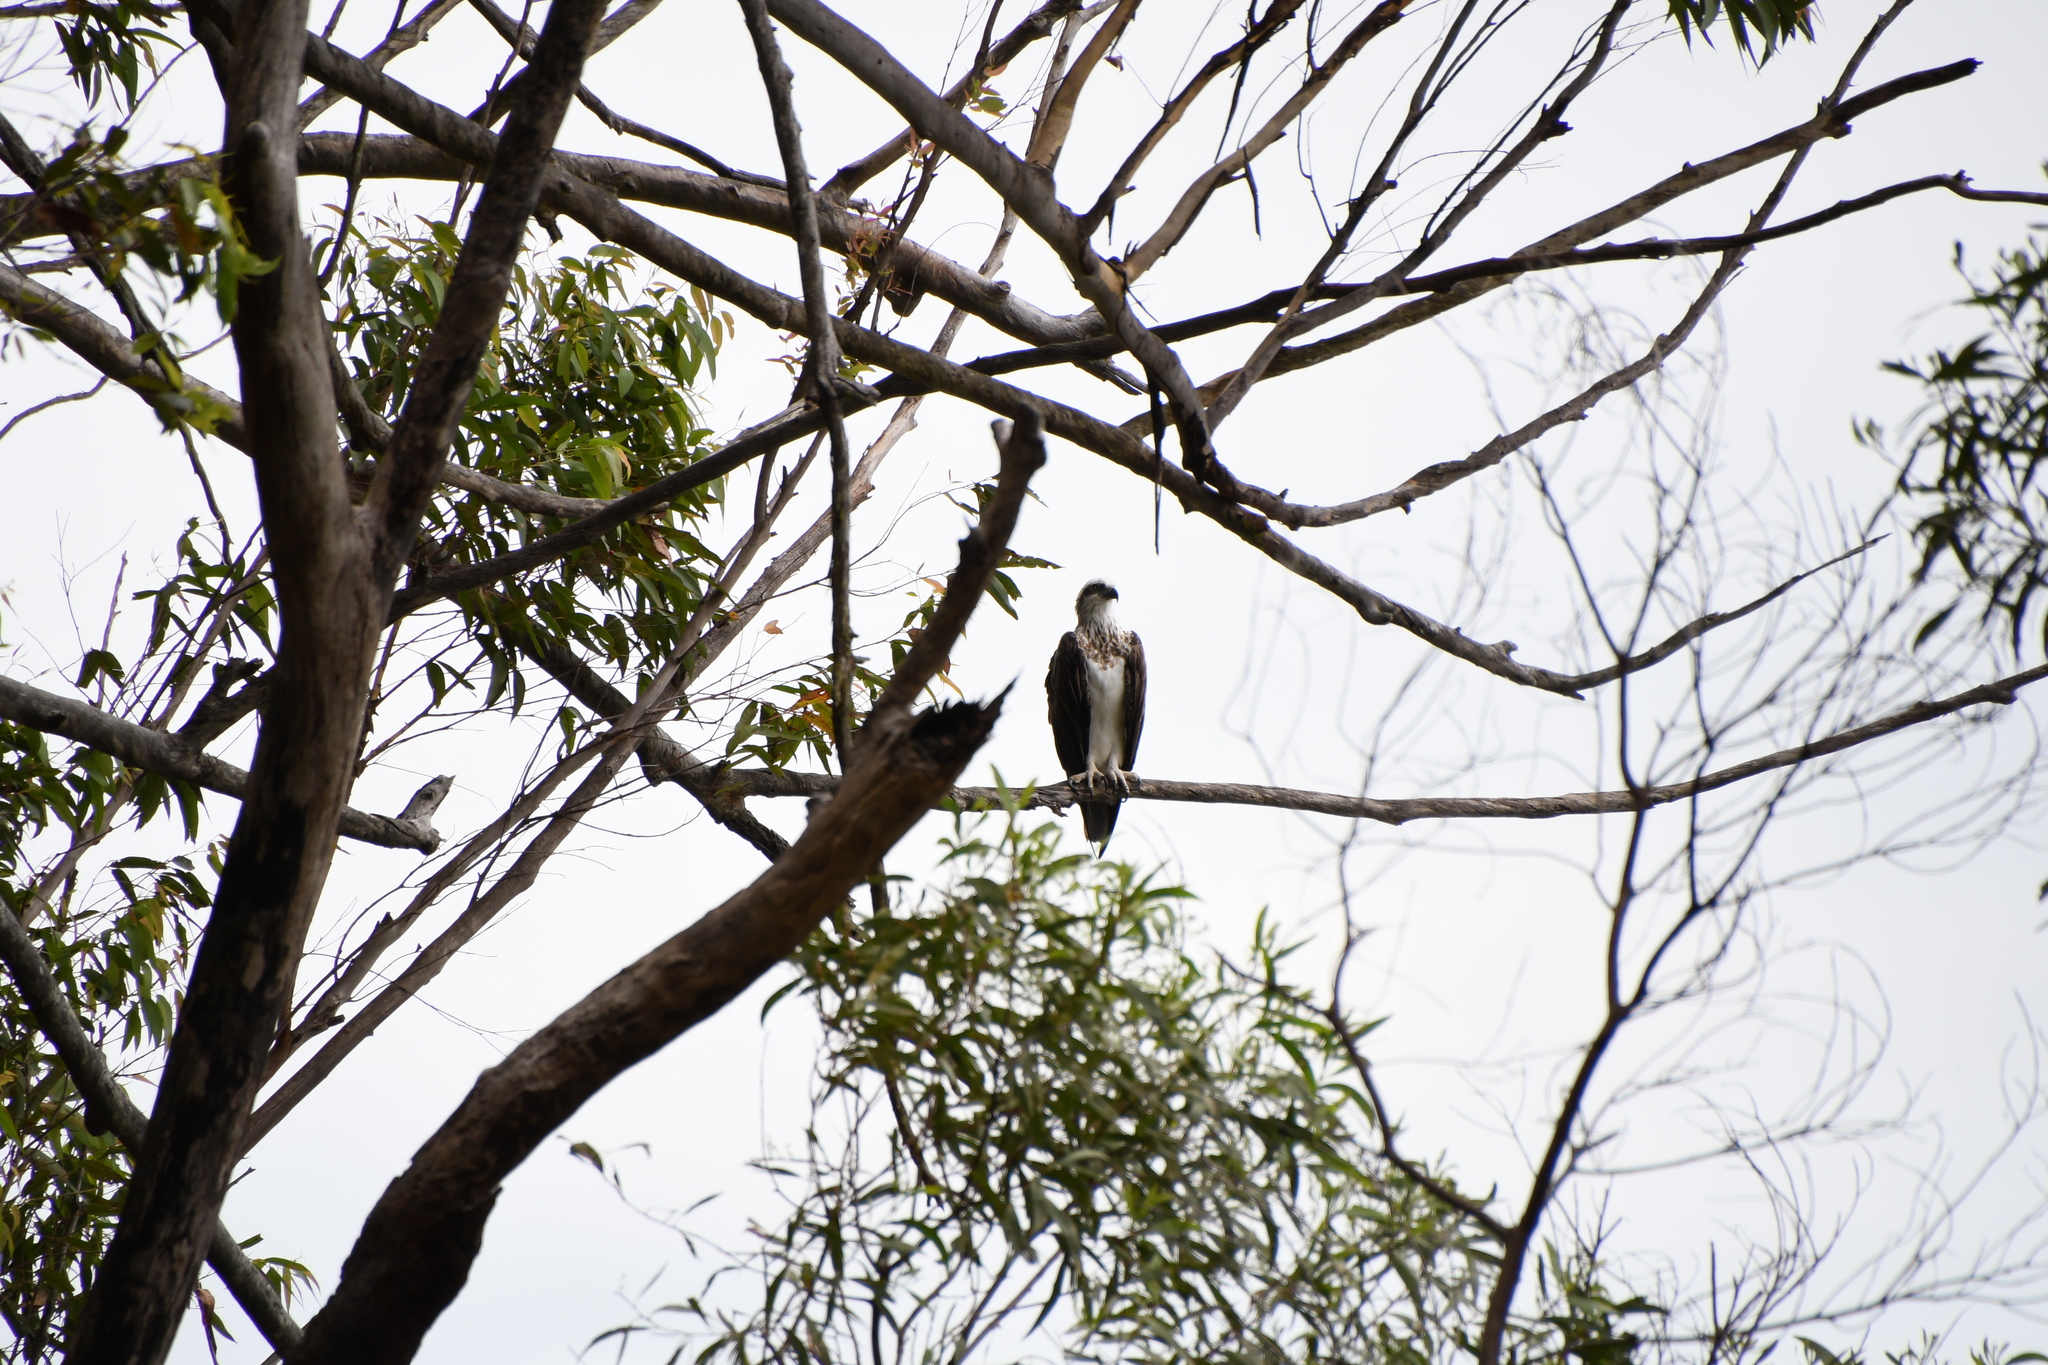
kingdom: Animalia
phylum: Chordata
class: Aves
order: Accipitriformes
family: Pandionidae
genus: Pandion
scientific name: Pandion haliaetus
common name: Osprey
